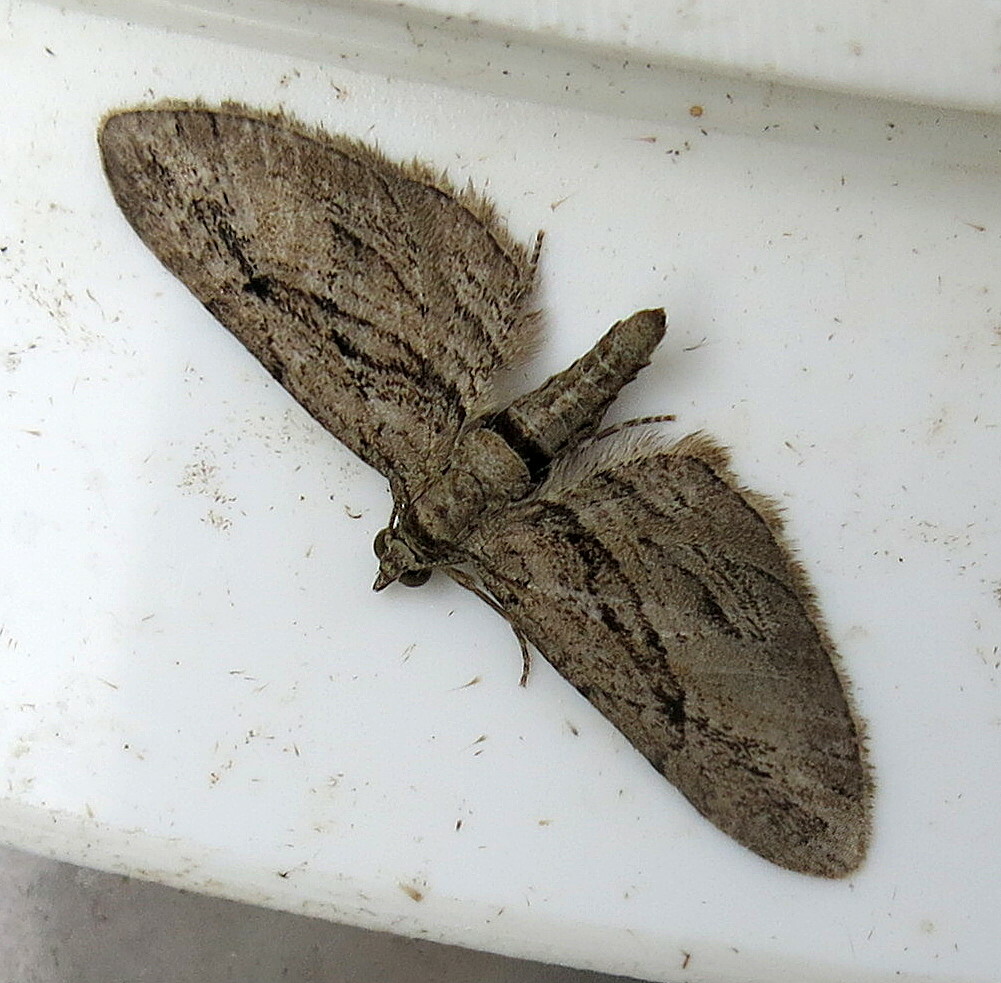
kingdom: Animalia
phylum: Arthropoda
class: Insecta
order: Lepidoptera
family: Geometridae
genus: Eupithecia
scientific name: Eupithecia phoeniceata
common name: Cypress pug
